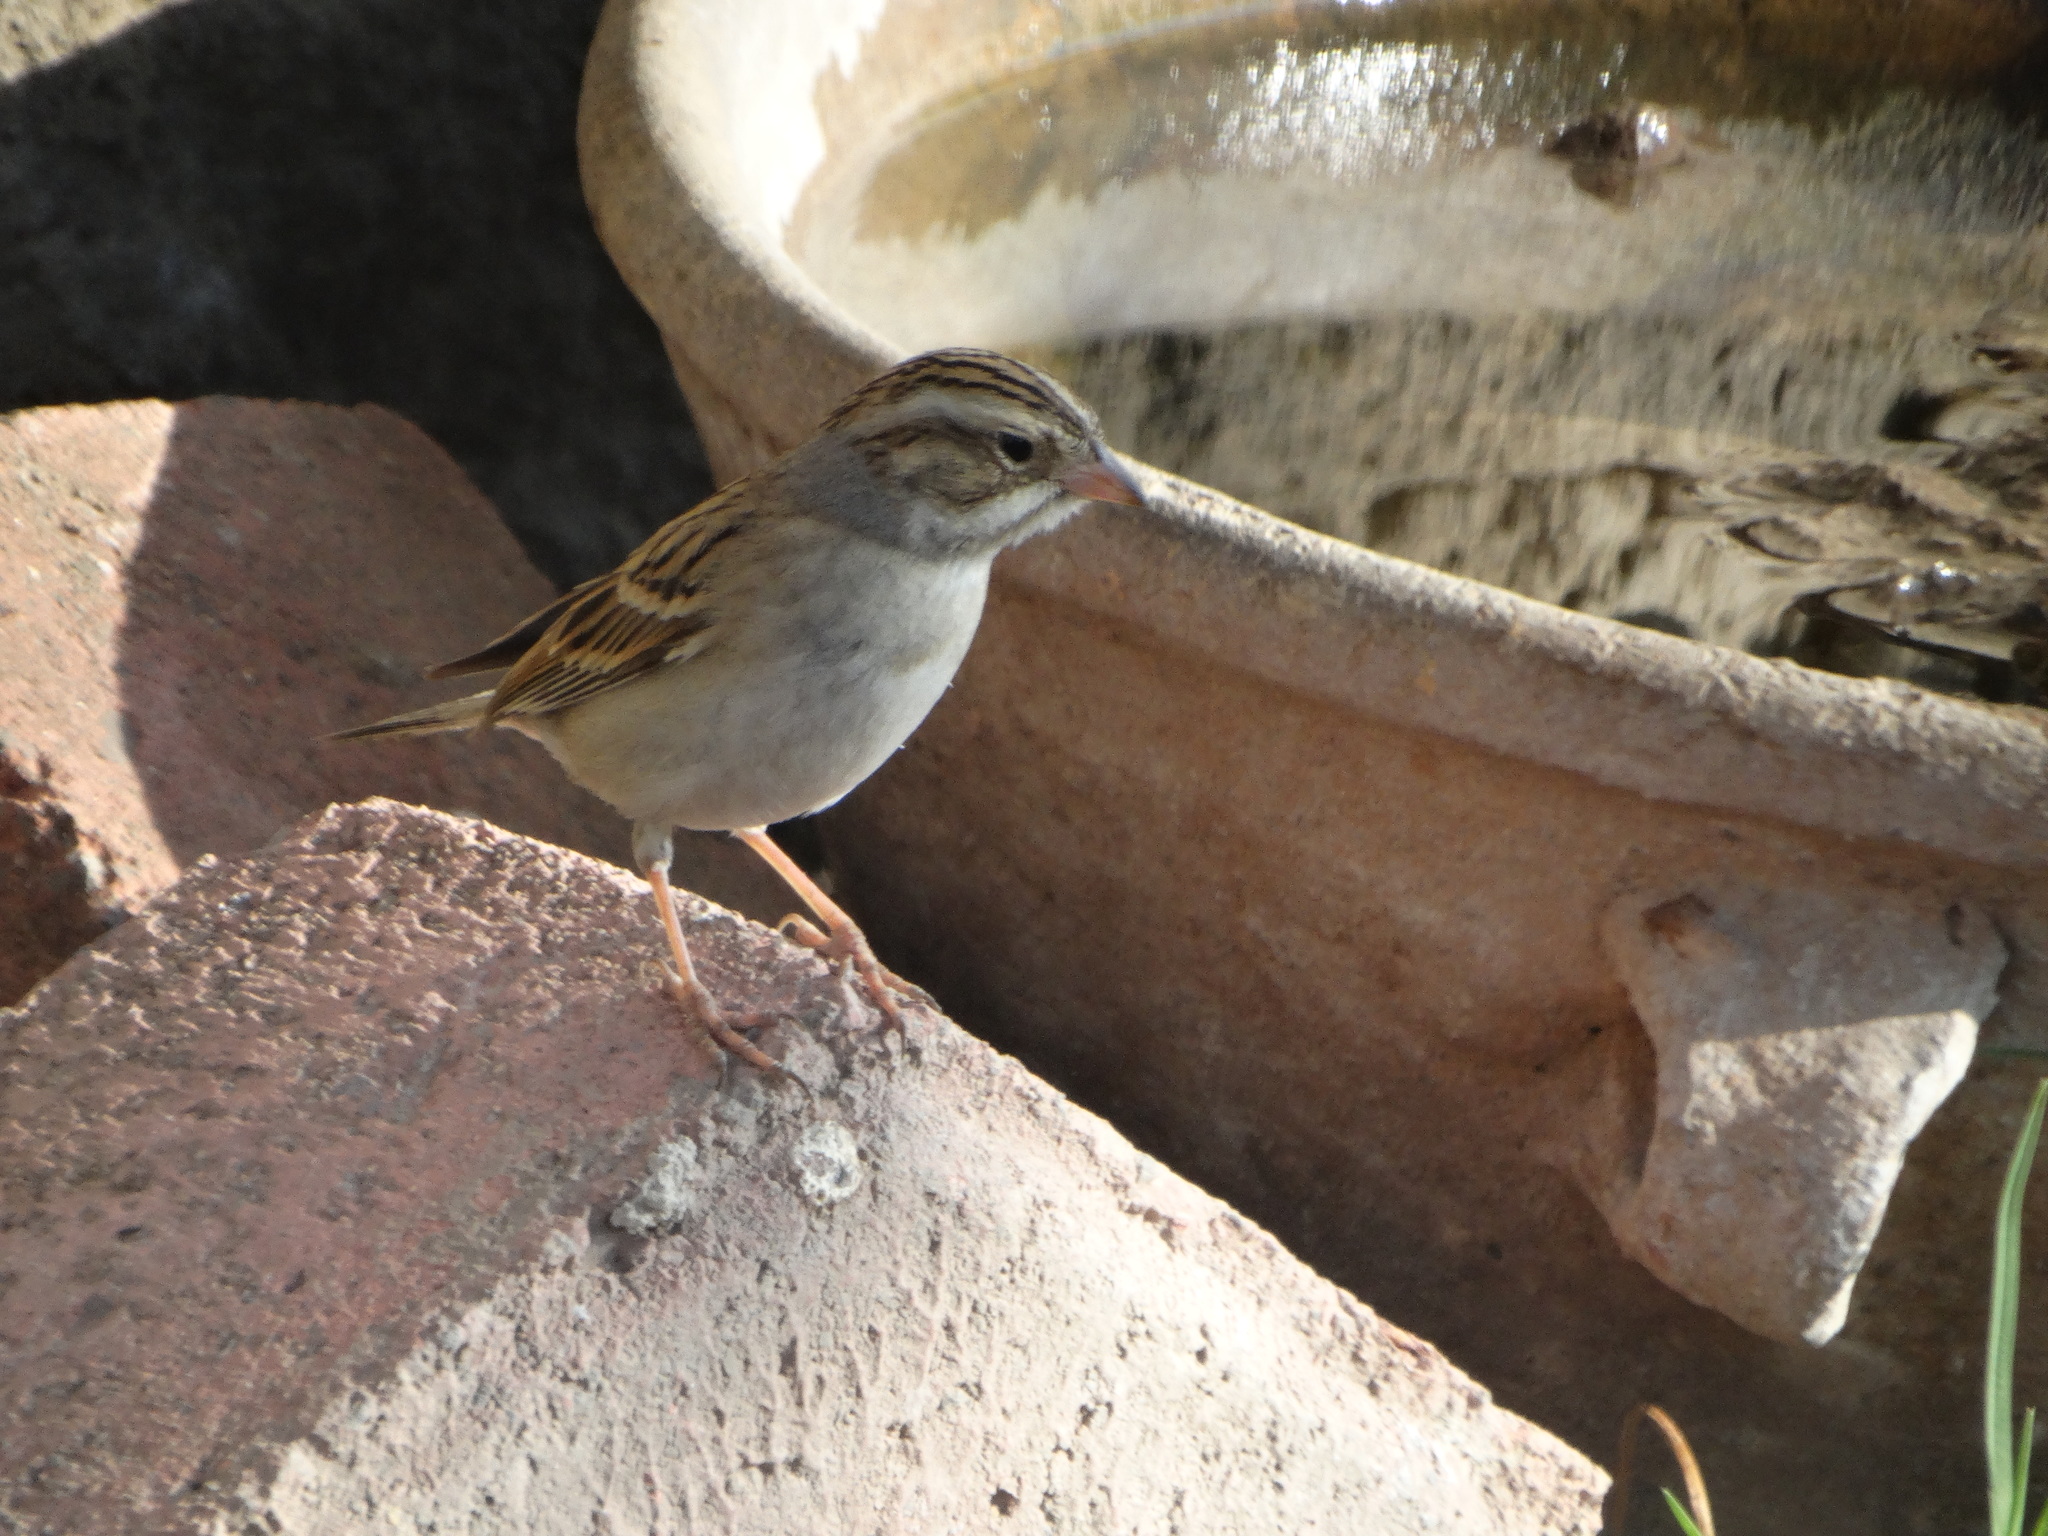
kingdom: Animalia
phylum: Chordata
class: Aves
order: Passeriformes
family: Passerellidae
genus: Spizella
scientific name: Spizella pallida
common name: Clay-colored sparrow
